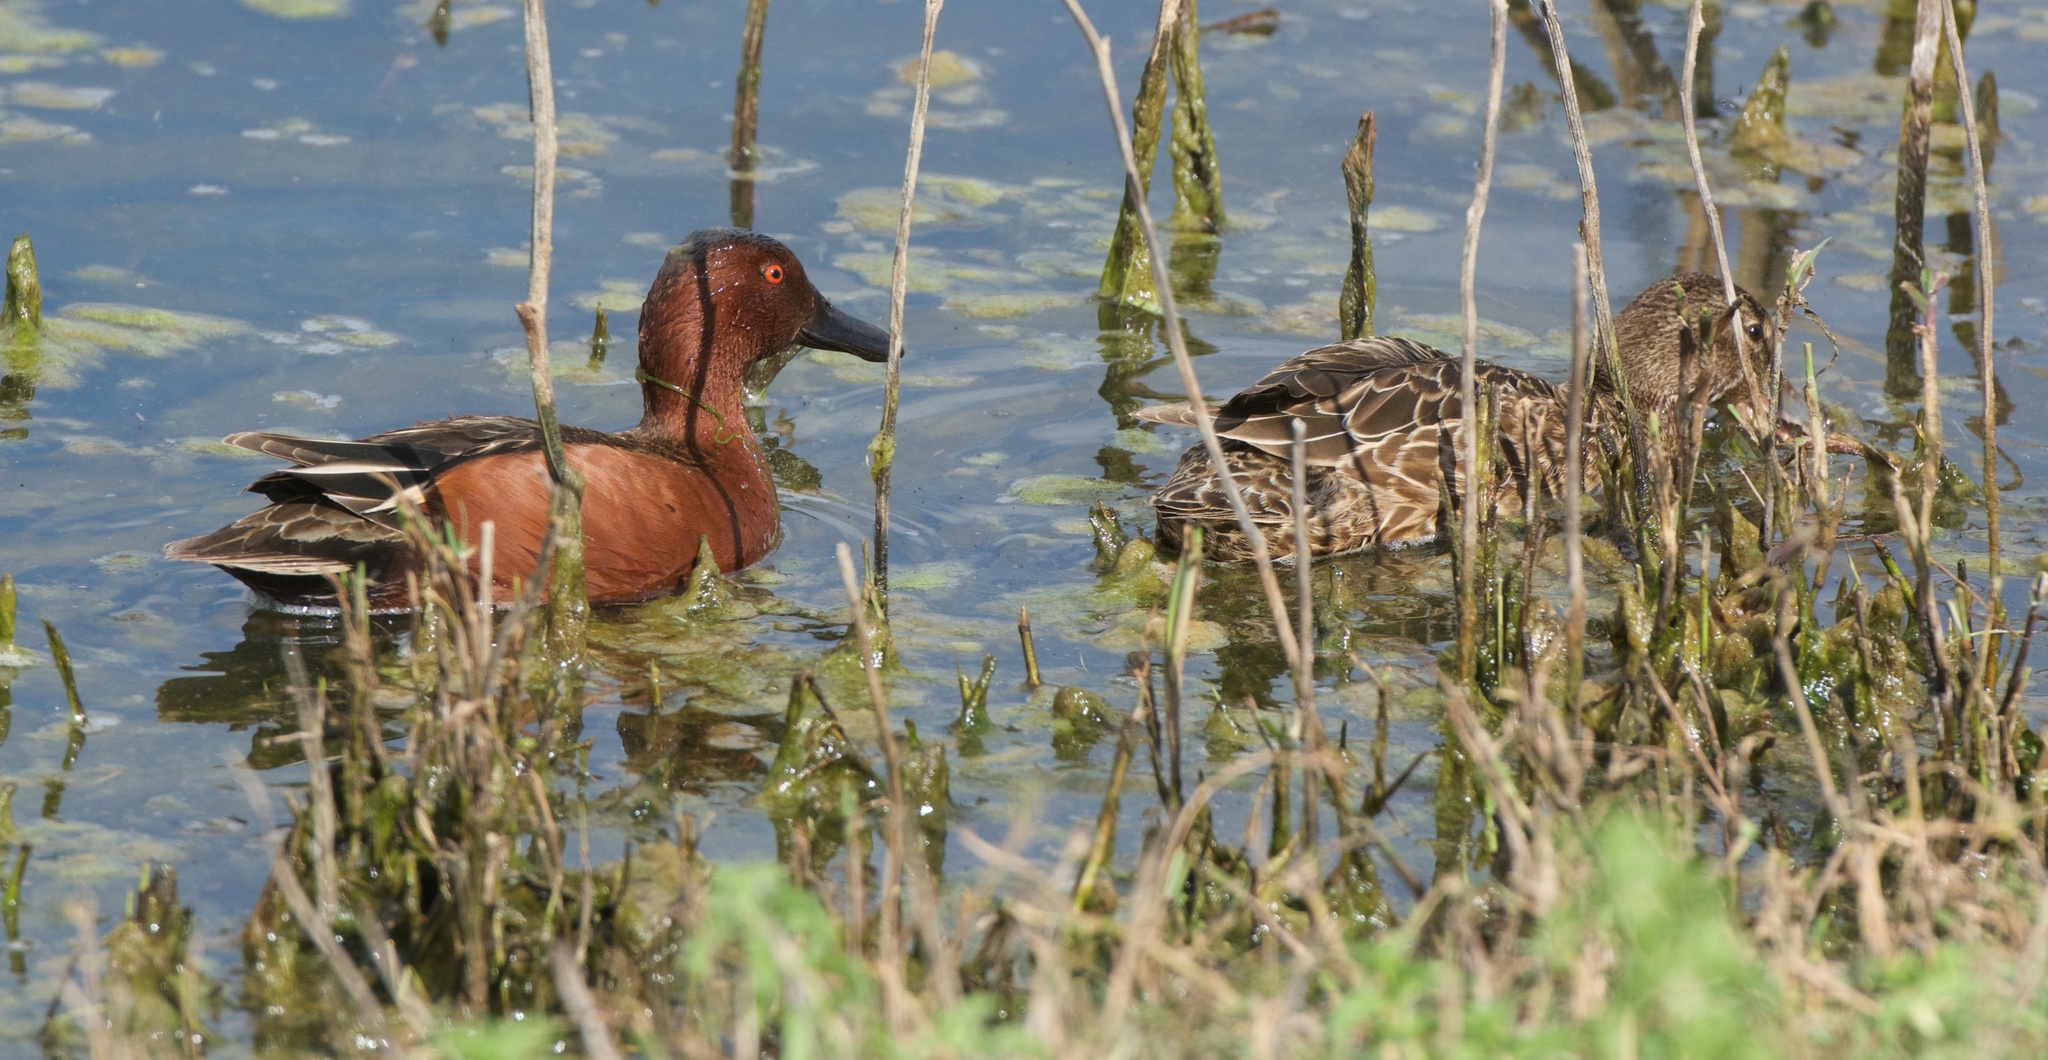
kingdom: Animalia
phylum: Chordata
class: Aves
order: Anseriformes
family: Anatidae
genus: Spatula
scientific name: Spatula cyanoptera
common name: Cinnamon teal
